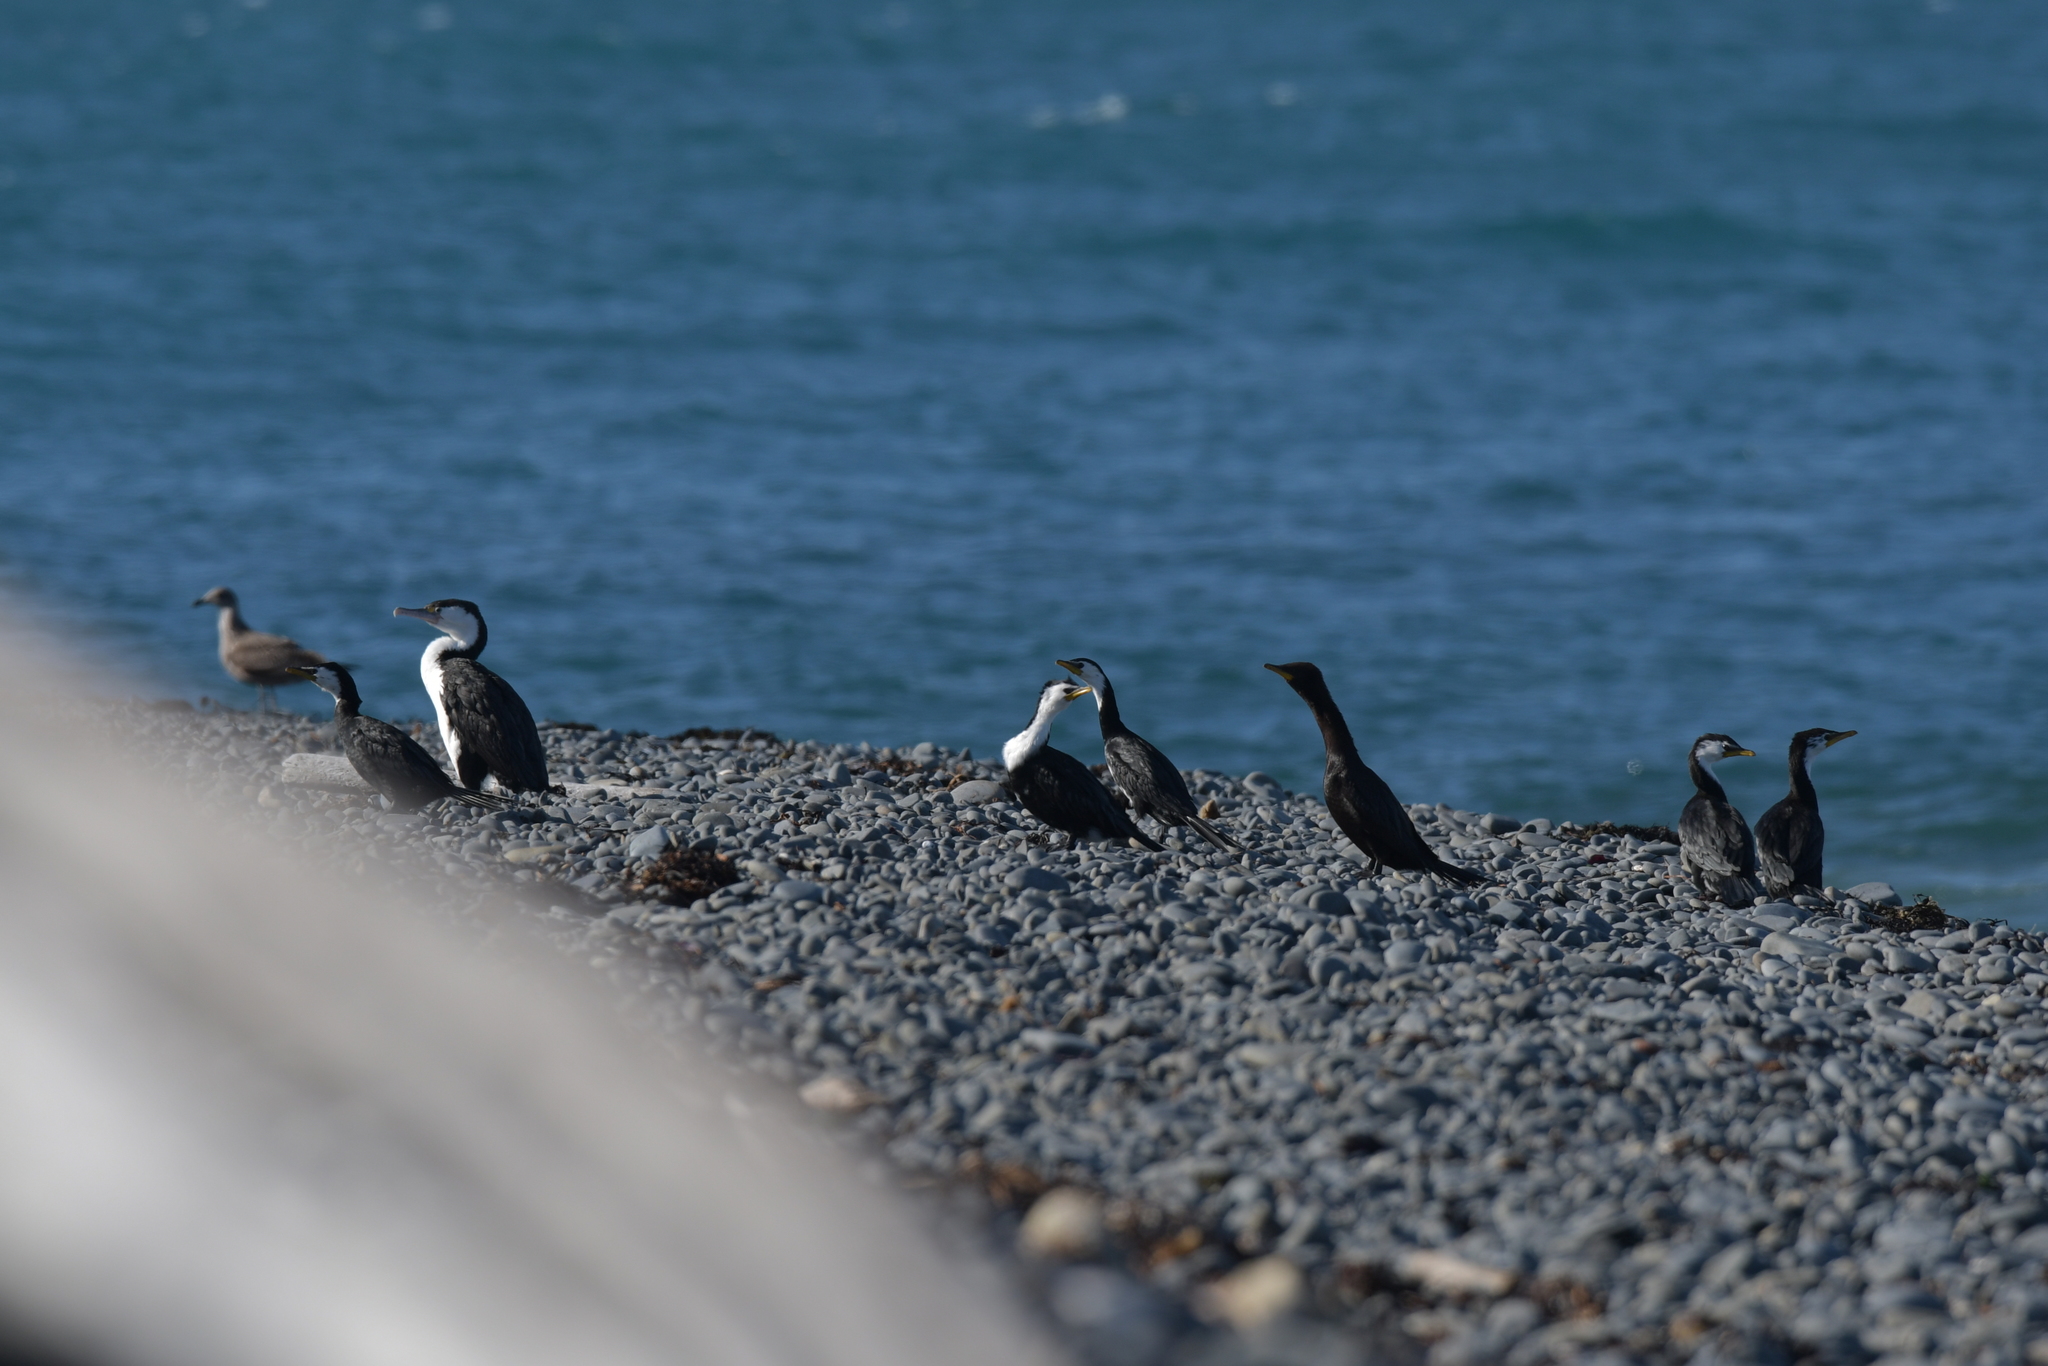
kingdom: Animalia
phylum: Chordata
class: Aves
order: Suliformes
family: Phalacrocoracidae
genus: Microcarbo
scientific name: Microcarbo melanoleucos
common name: Little pied cormorant
